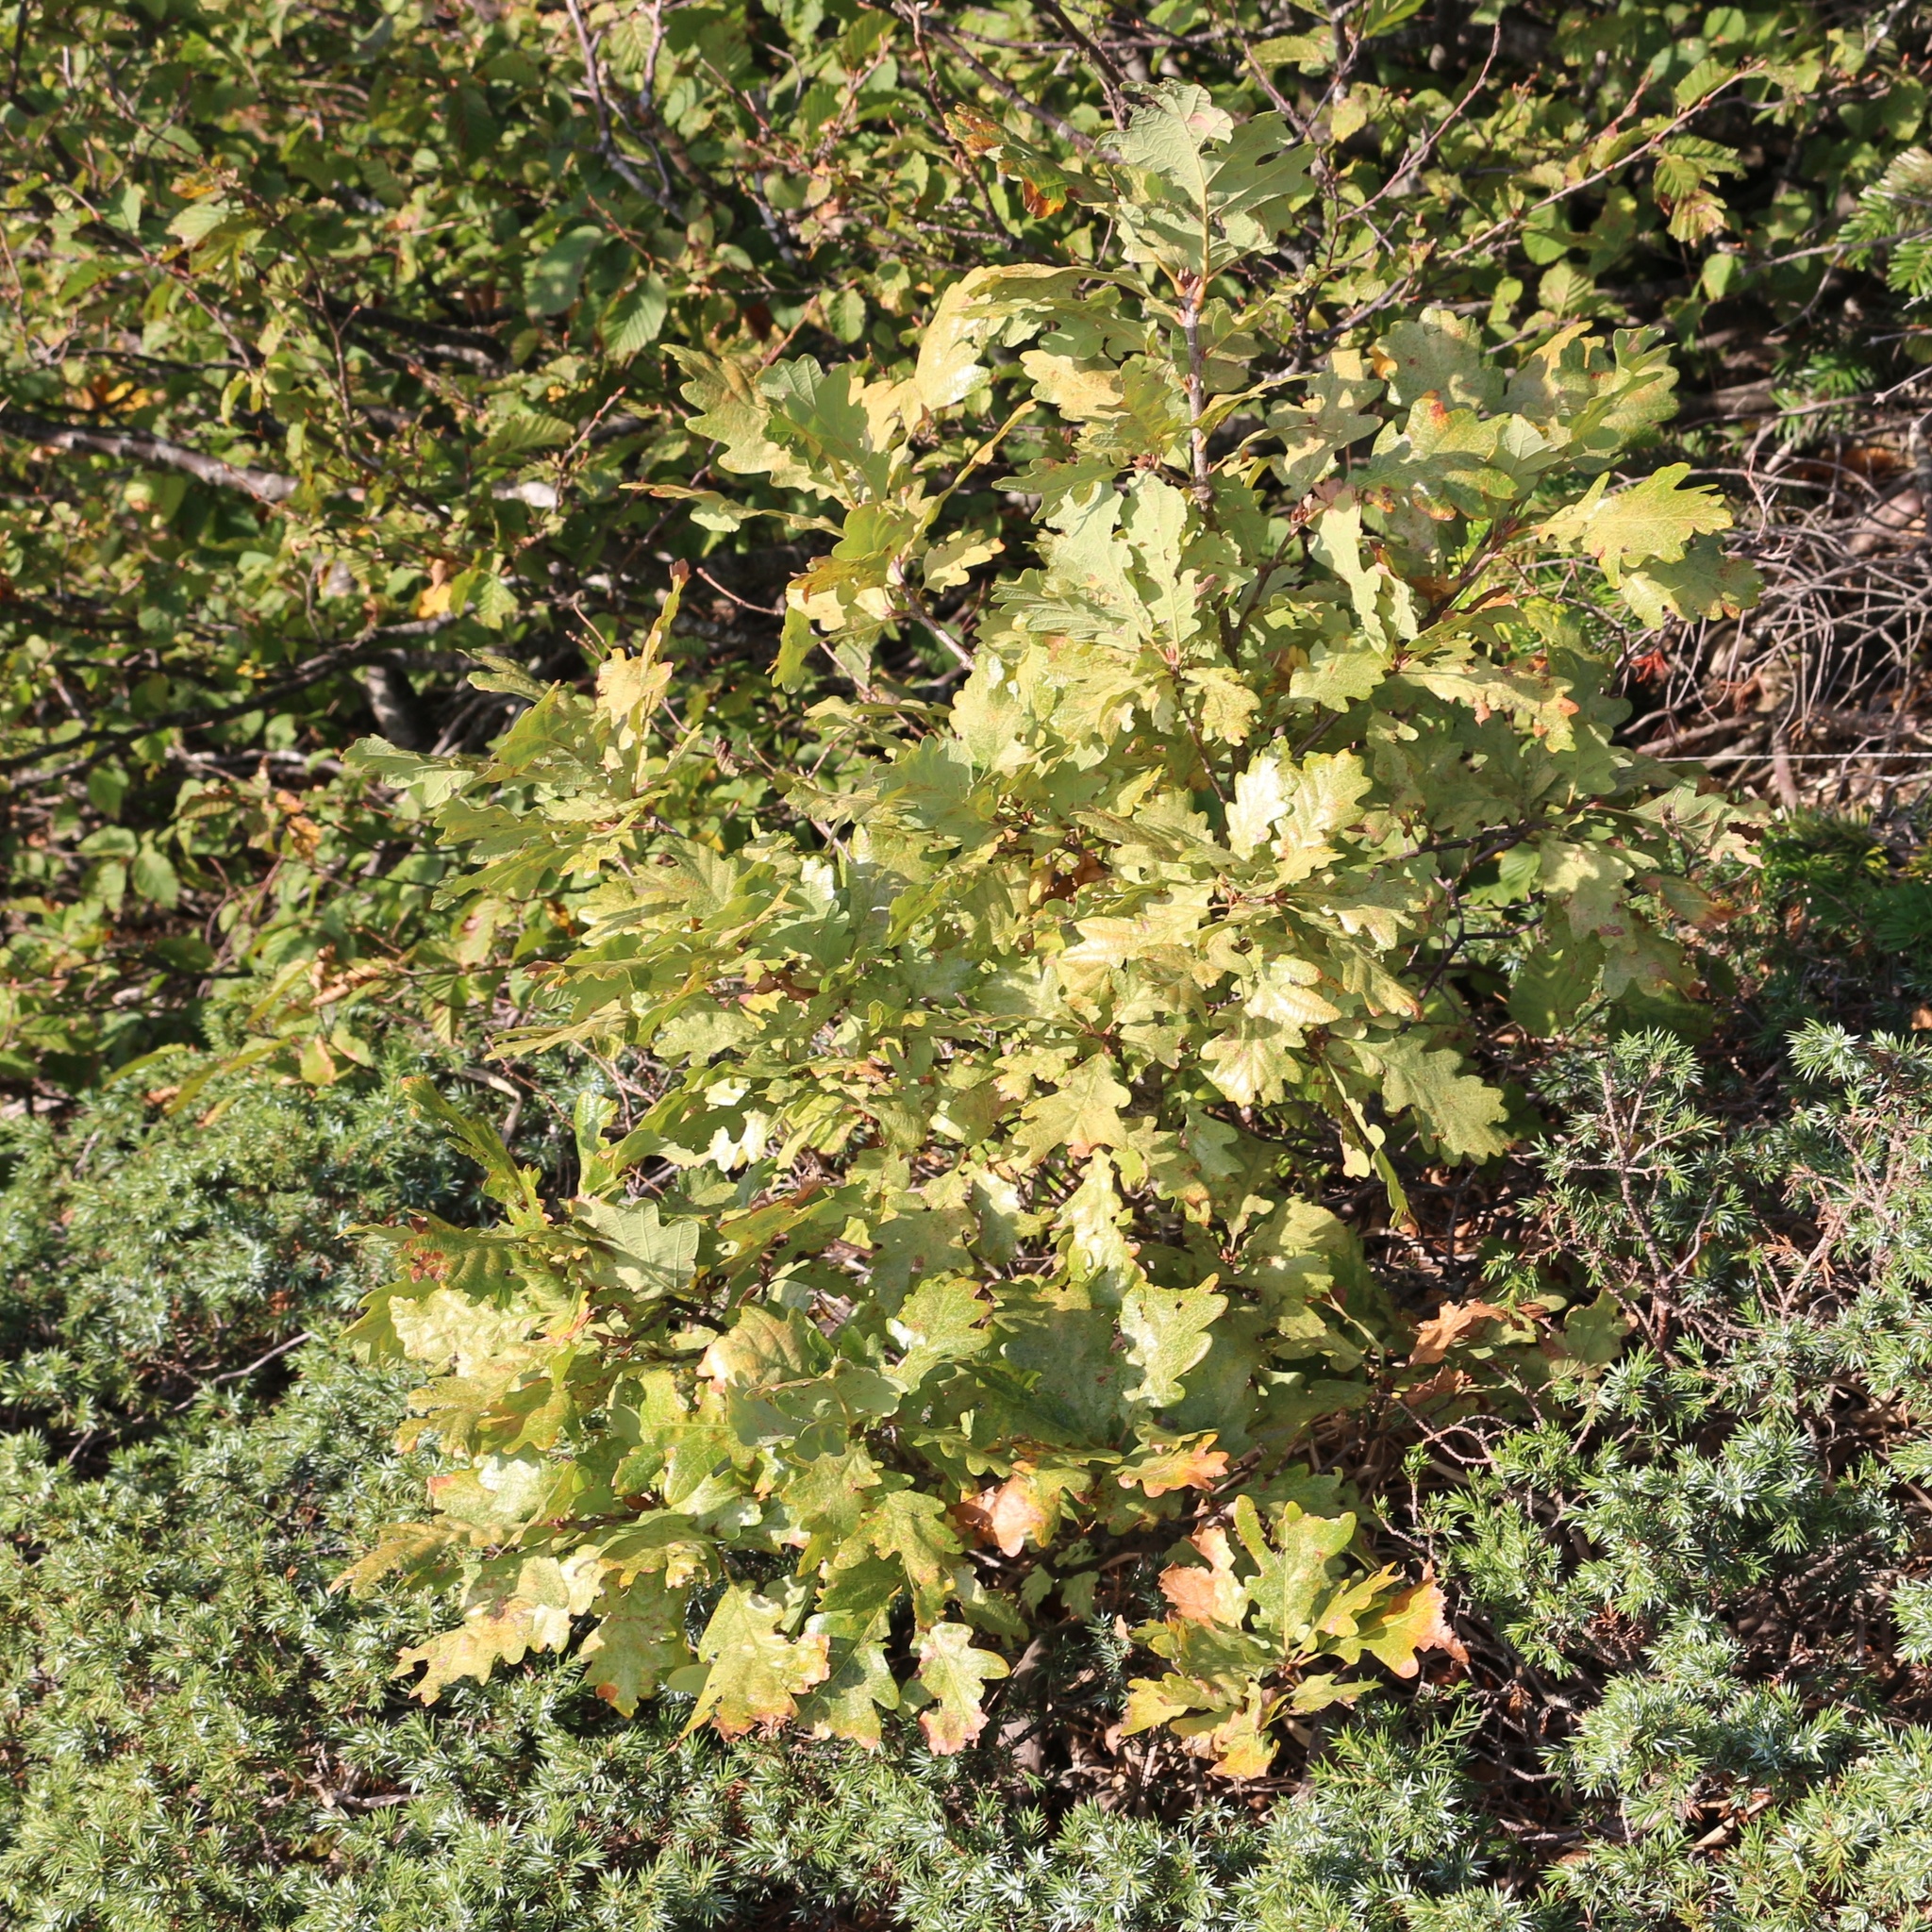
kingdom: Plantae
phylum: Tracheophyta
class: Magnoliopsida
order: Fagales
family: Fagaceae
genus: Quercus
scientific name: Quercus petraea
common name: Sessile oak
